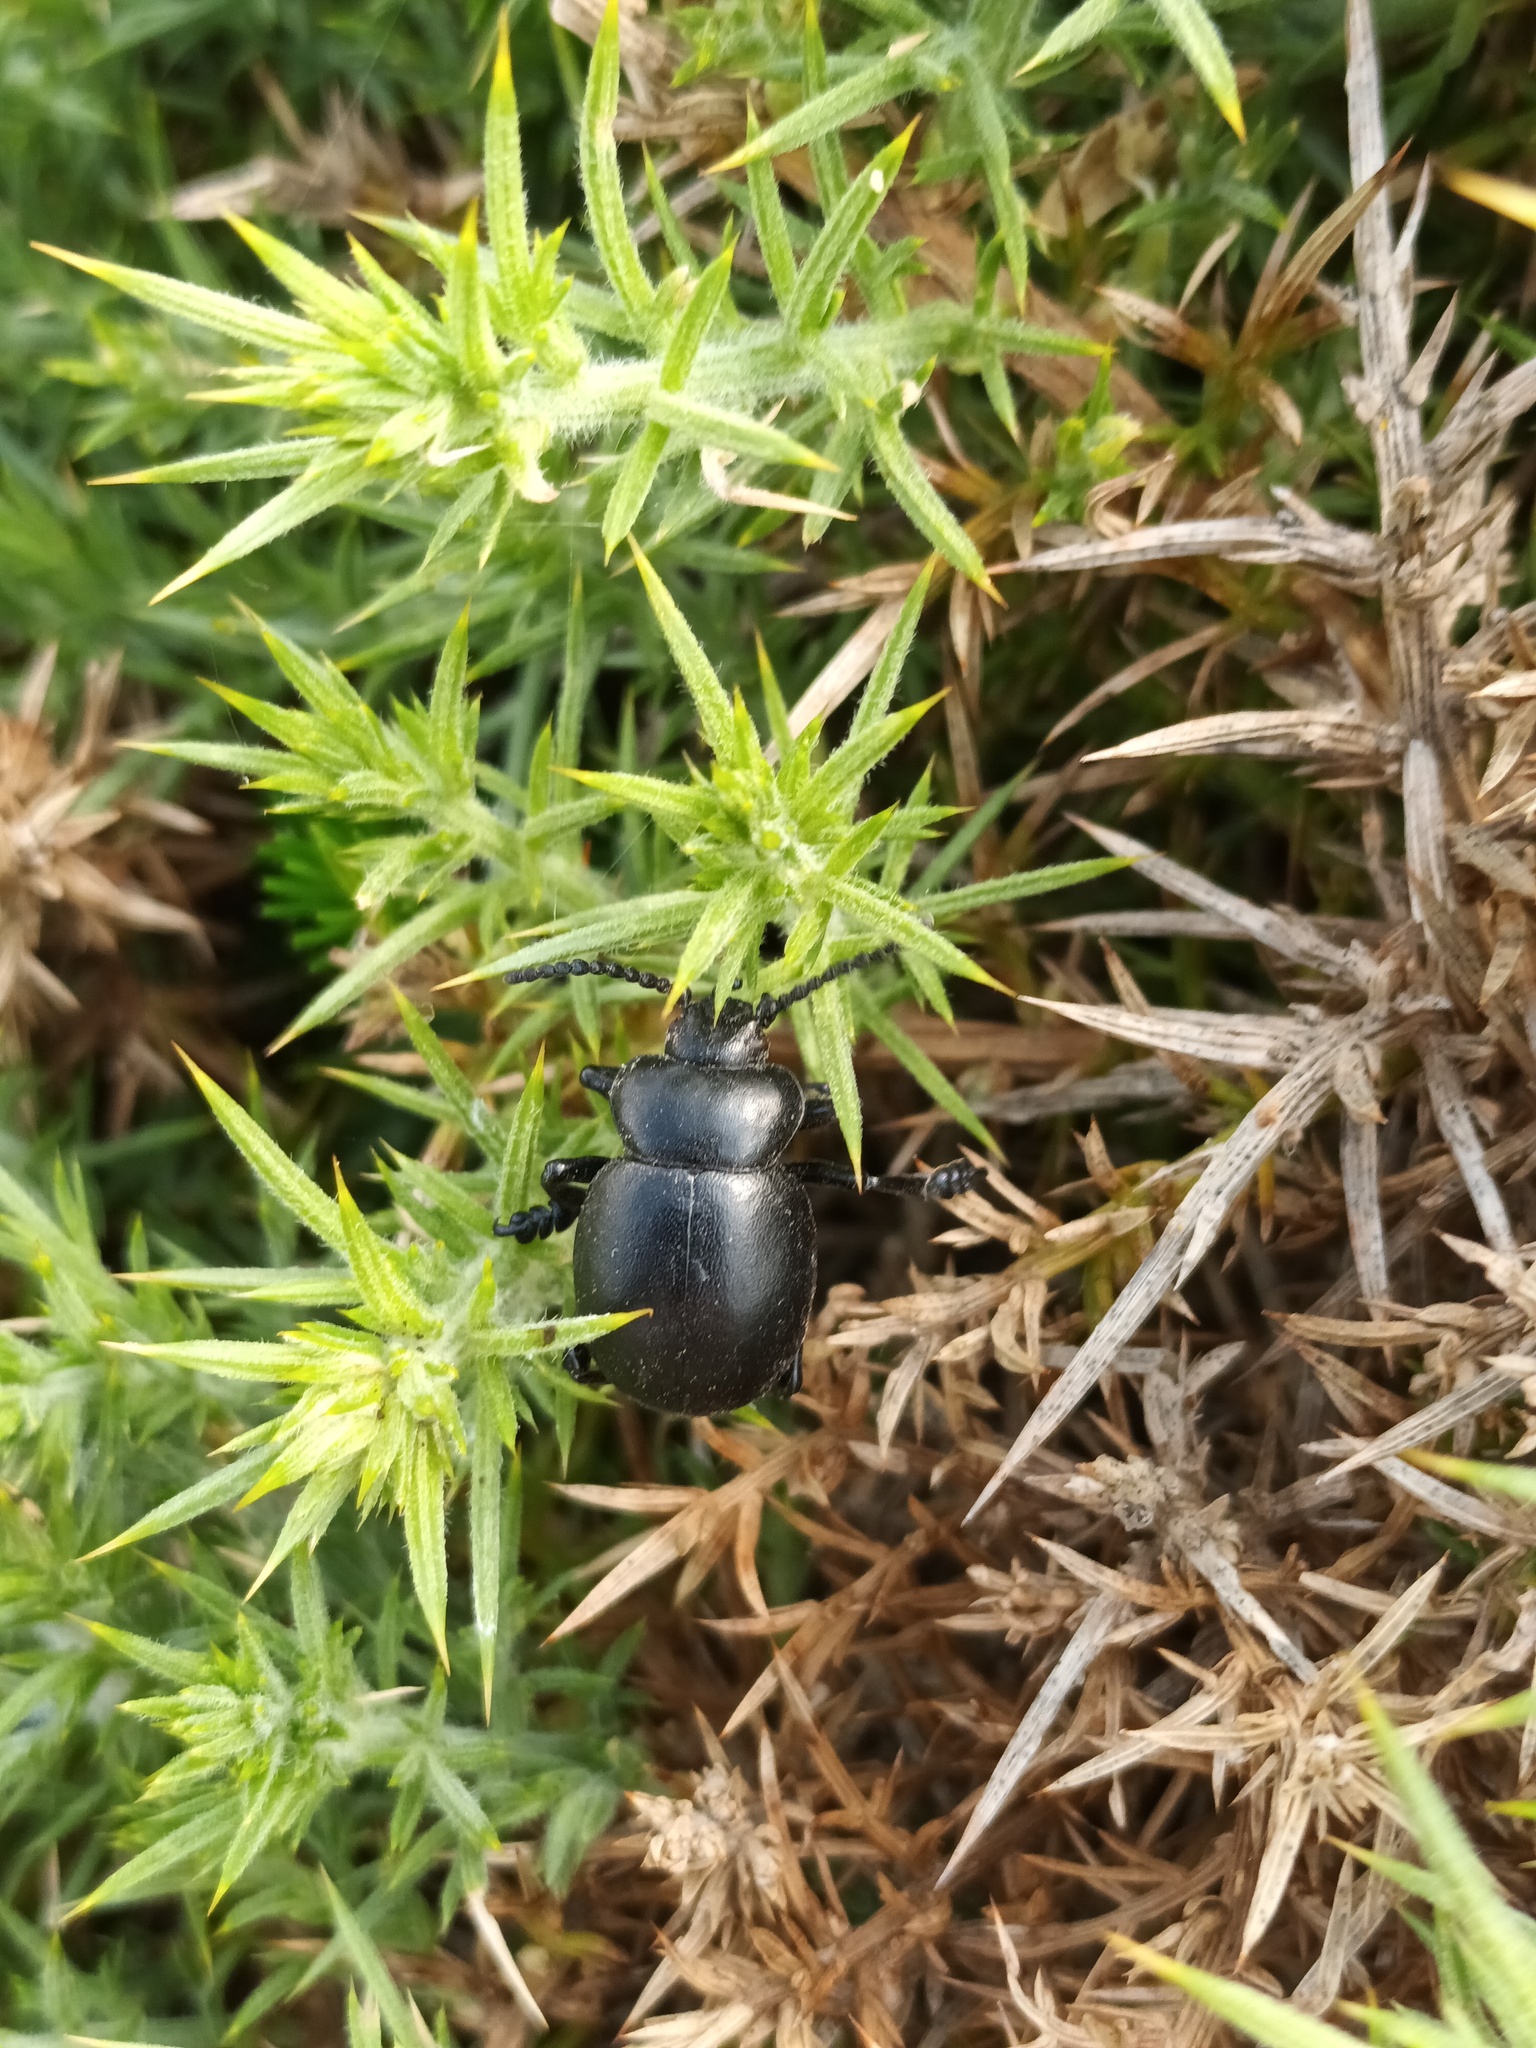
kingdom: Animalia
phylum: Arthropoda
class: Insecta
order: Coleoptera
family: Chrysomelidae
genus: Timarcha
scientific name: Timarcha tenebricosa
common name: Bloody-nosed beetle
